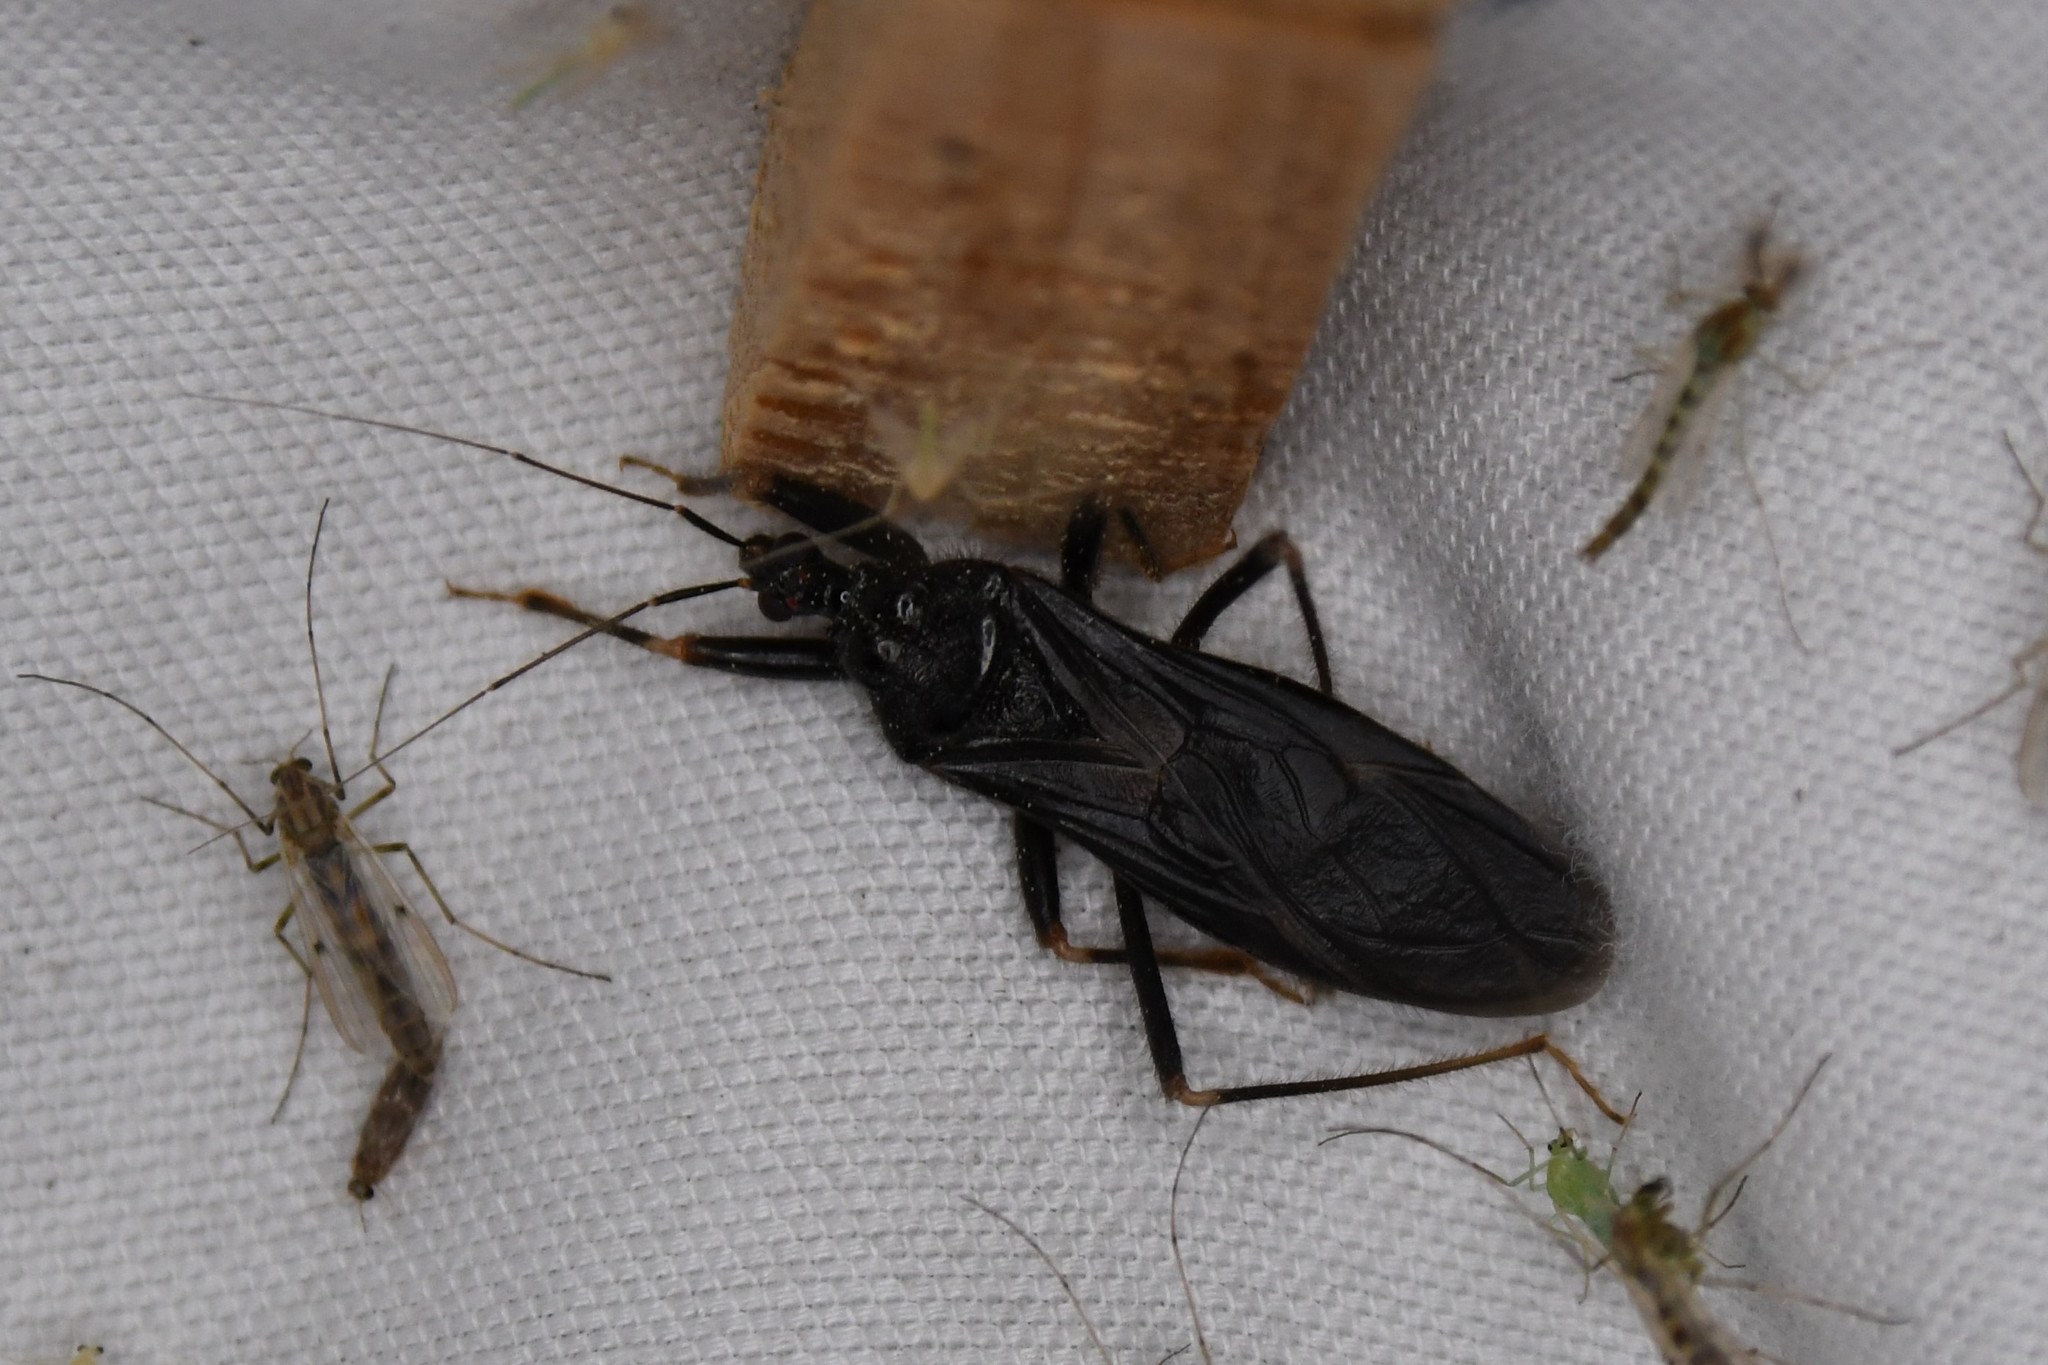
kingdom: Animalia
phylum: Arthropoda
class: Insecta
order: Hemiptera
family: Reduviidae
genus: Reduvius
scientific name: Reduvius personatus
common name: Masked hunter
